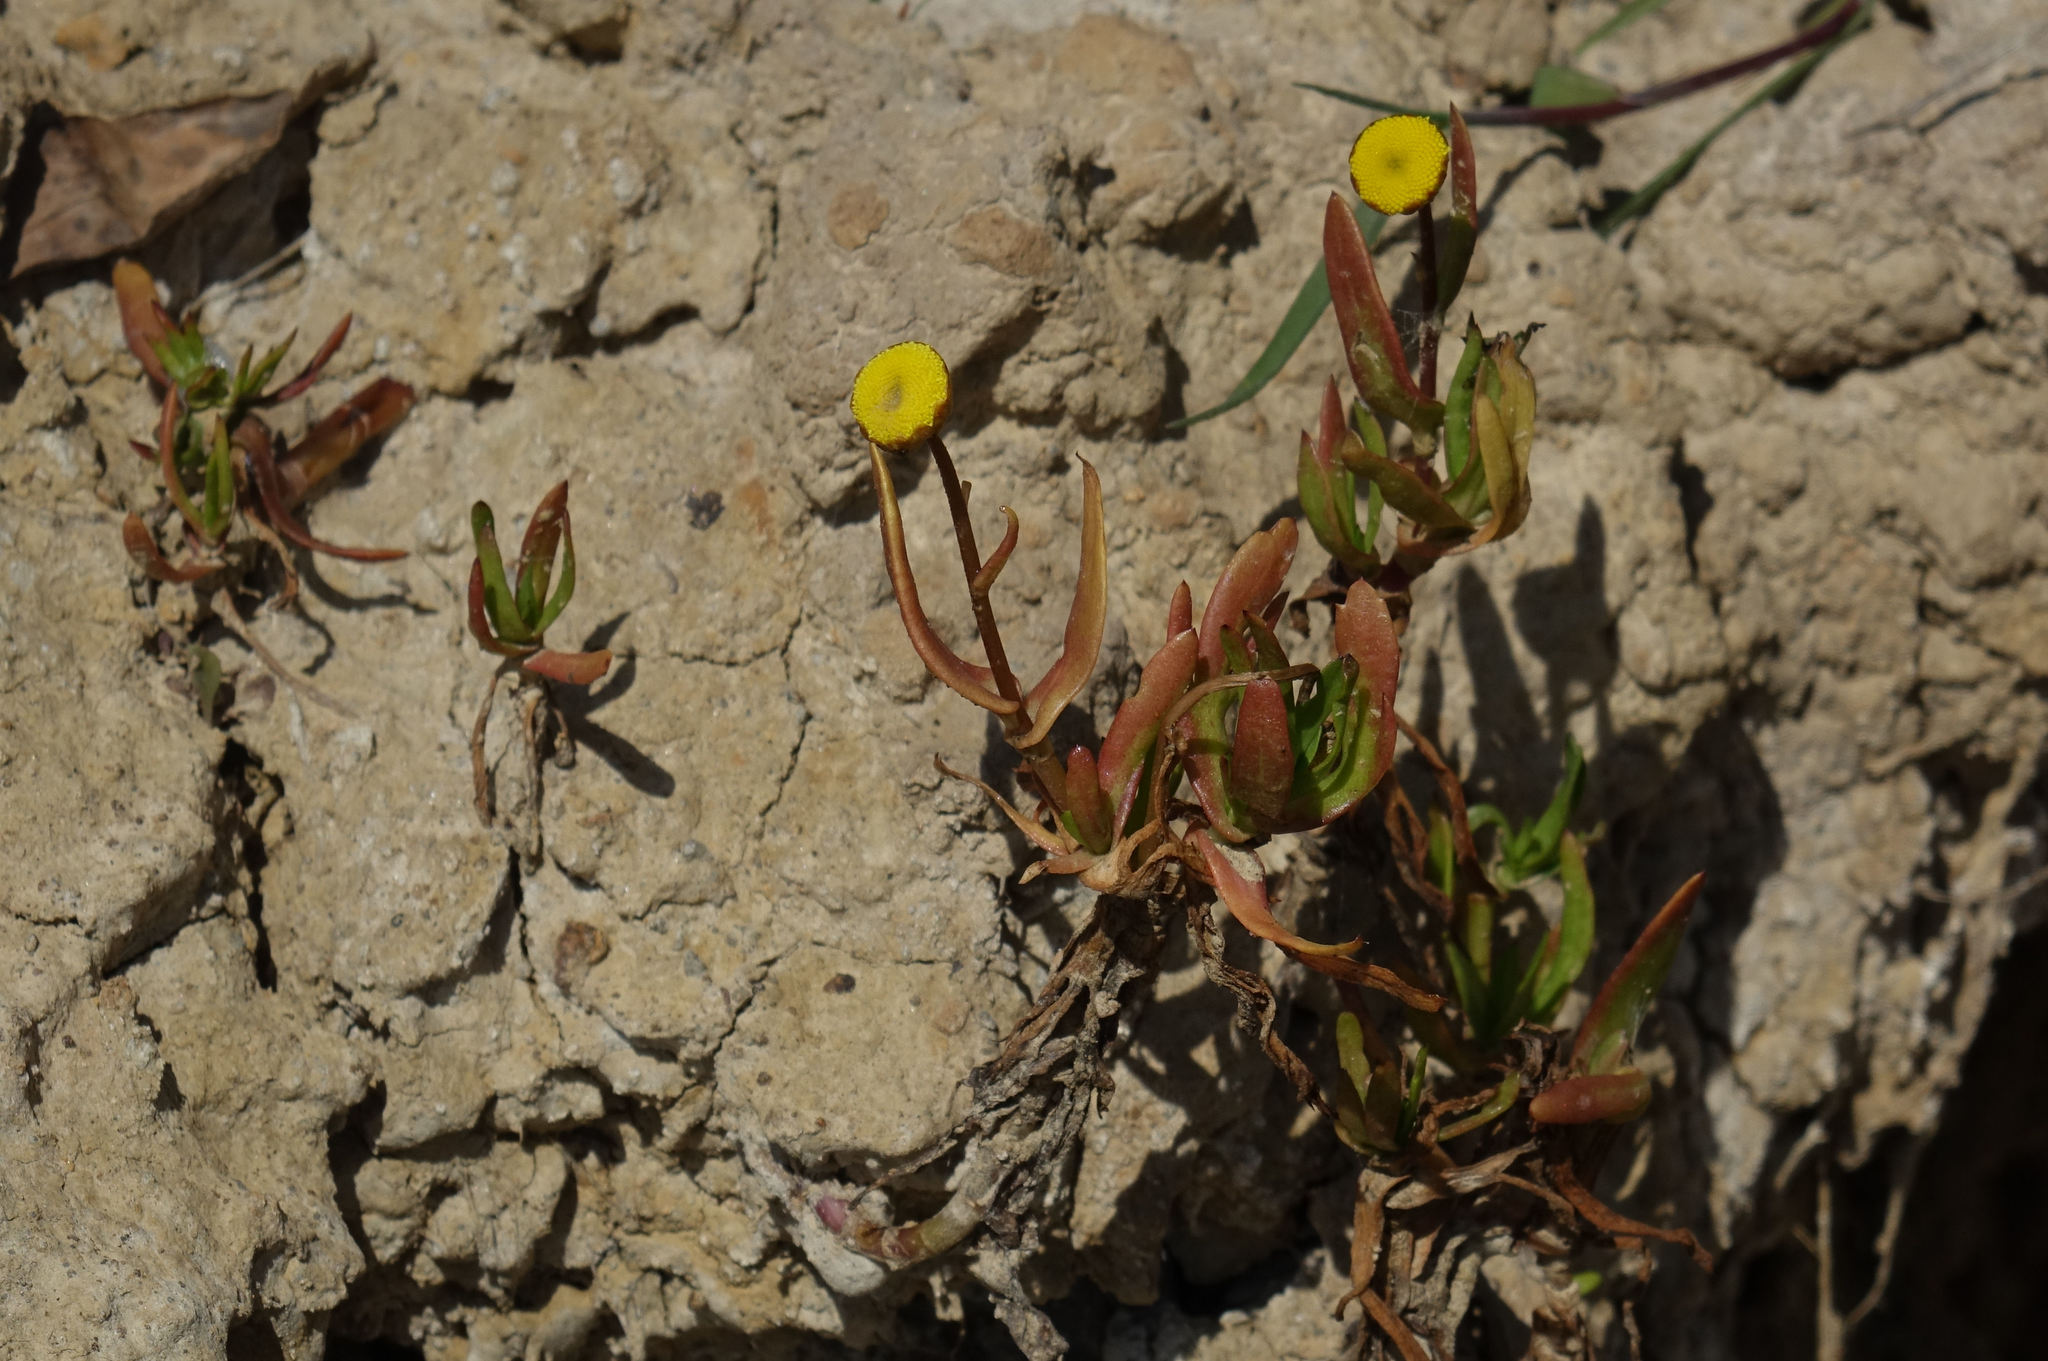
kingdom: Plantae
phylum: Tracheophyta
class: Magnoliopsida
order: Asterales
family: Asteraceae
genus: Cotula
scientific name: Cotula coronopifolia
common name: Buttonweed
